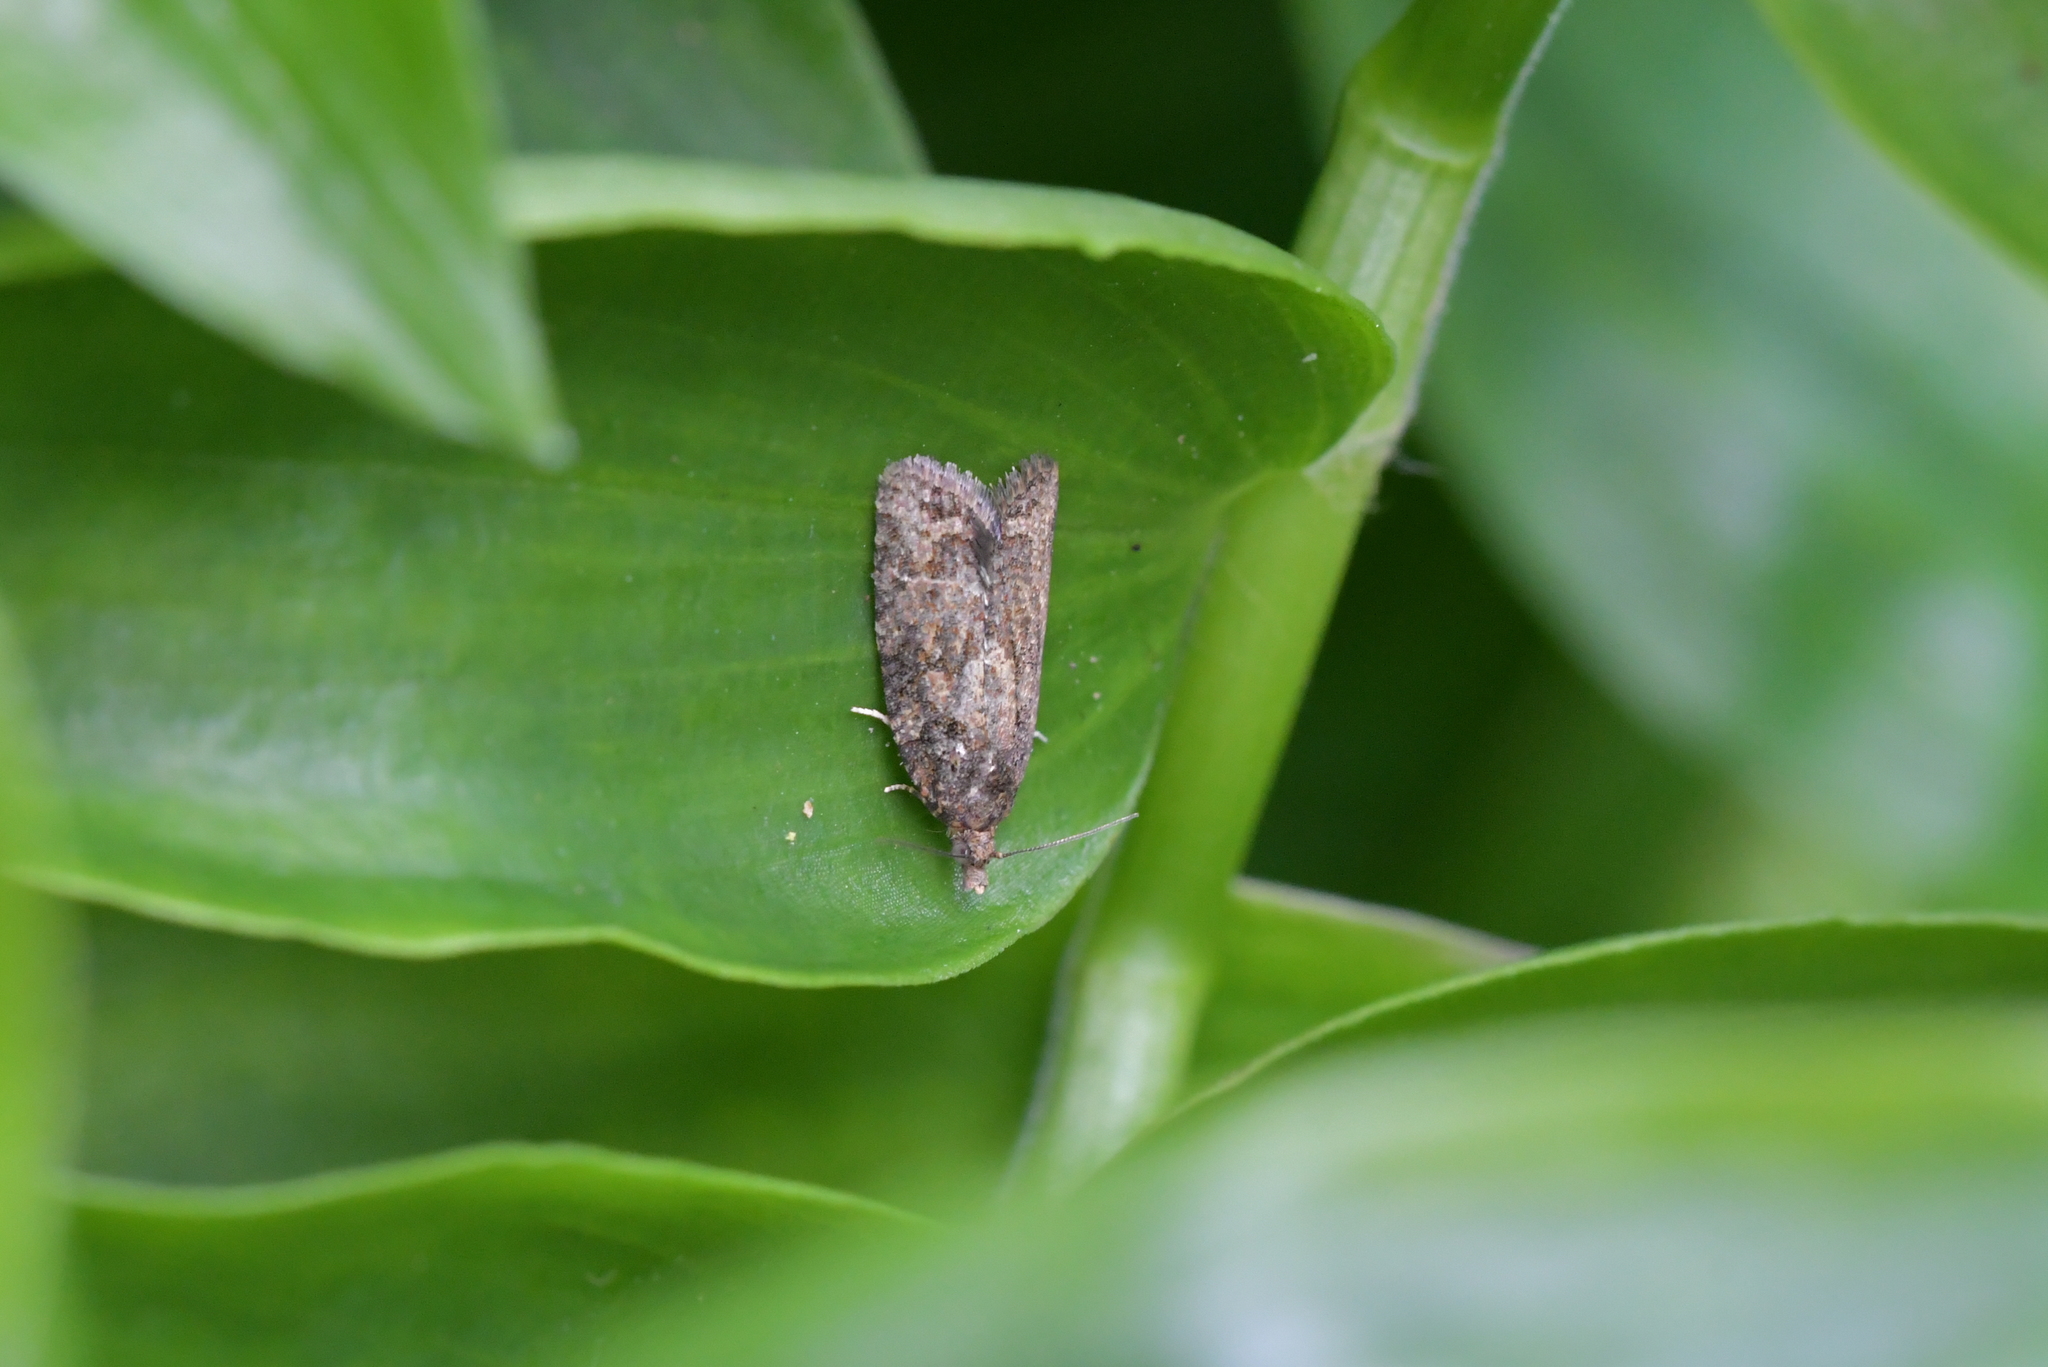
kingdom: Animalia
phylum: Arthropoda
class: Insecta
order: Lepidoptera
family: Tortricidae
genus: Capua
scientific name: Capua intractana
